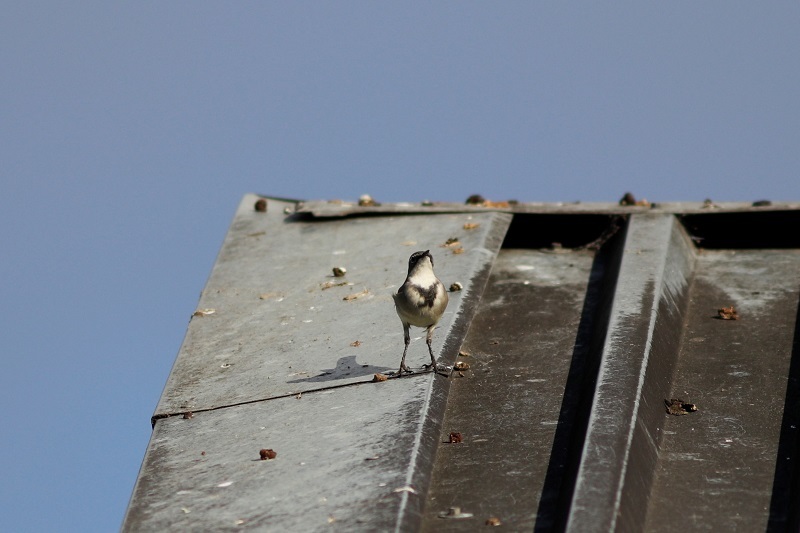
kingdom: Animalia
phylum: Chordata
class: Aves
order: Passeriformes
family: Motacillidae
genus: Motacilla
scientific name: Motacilla capensis
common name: Cape wagtail
